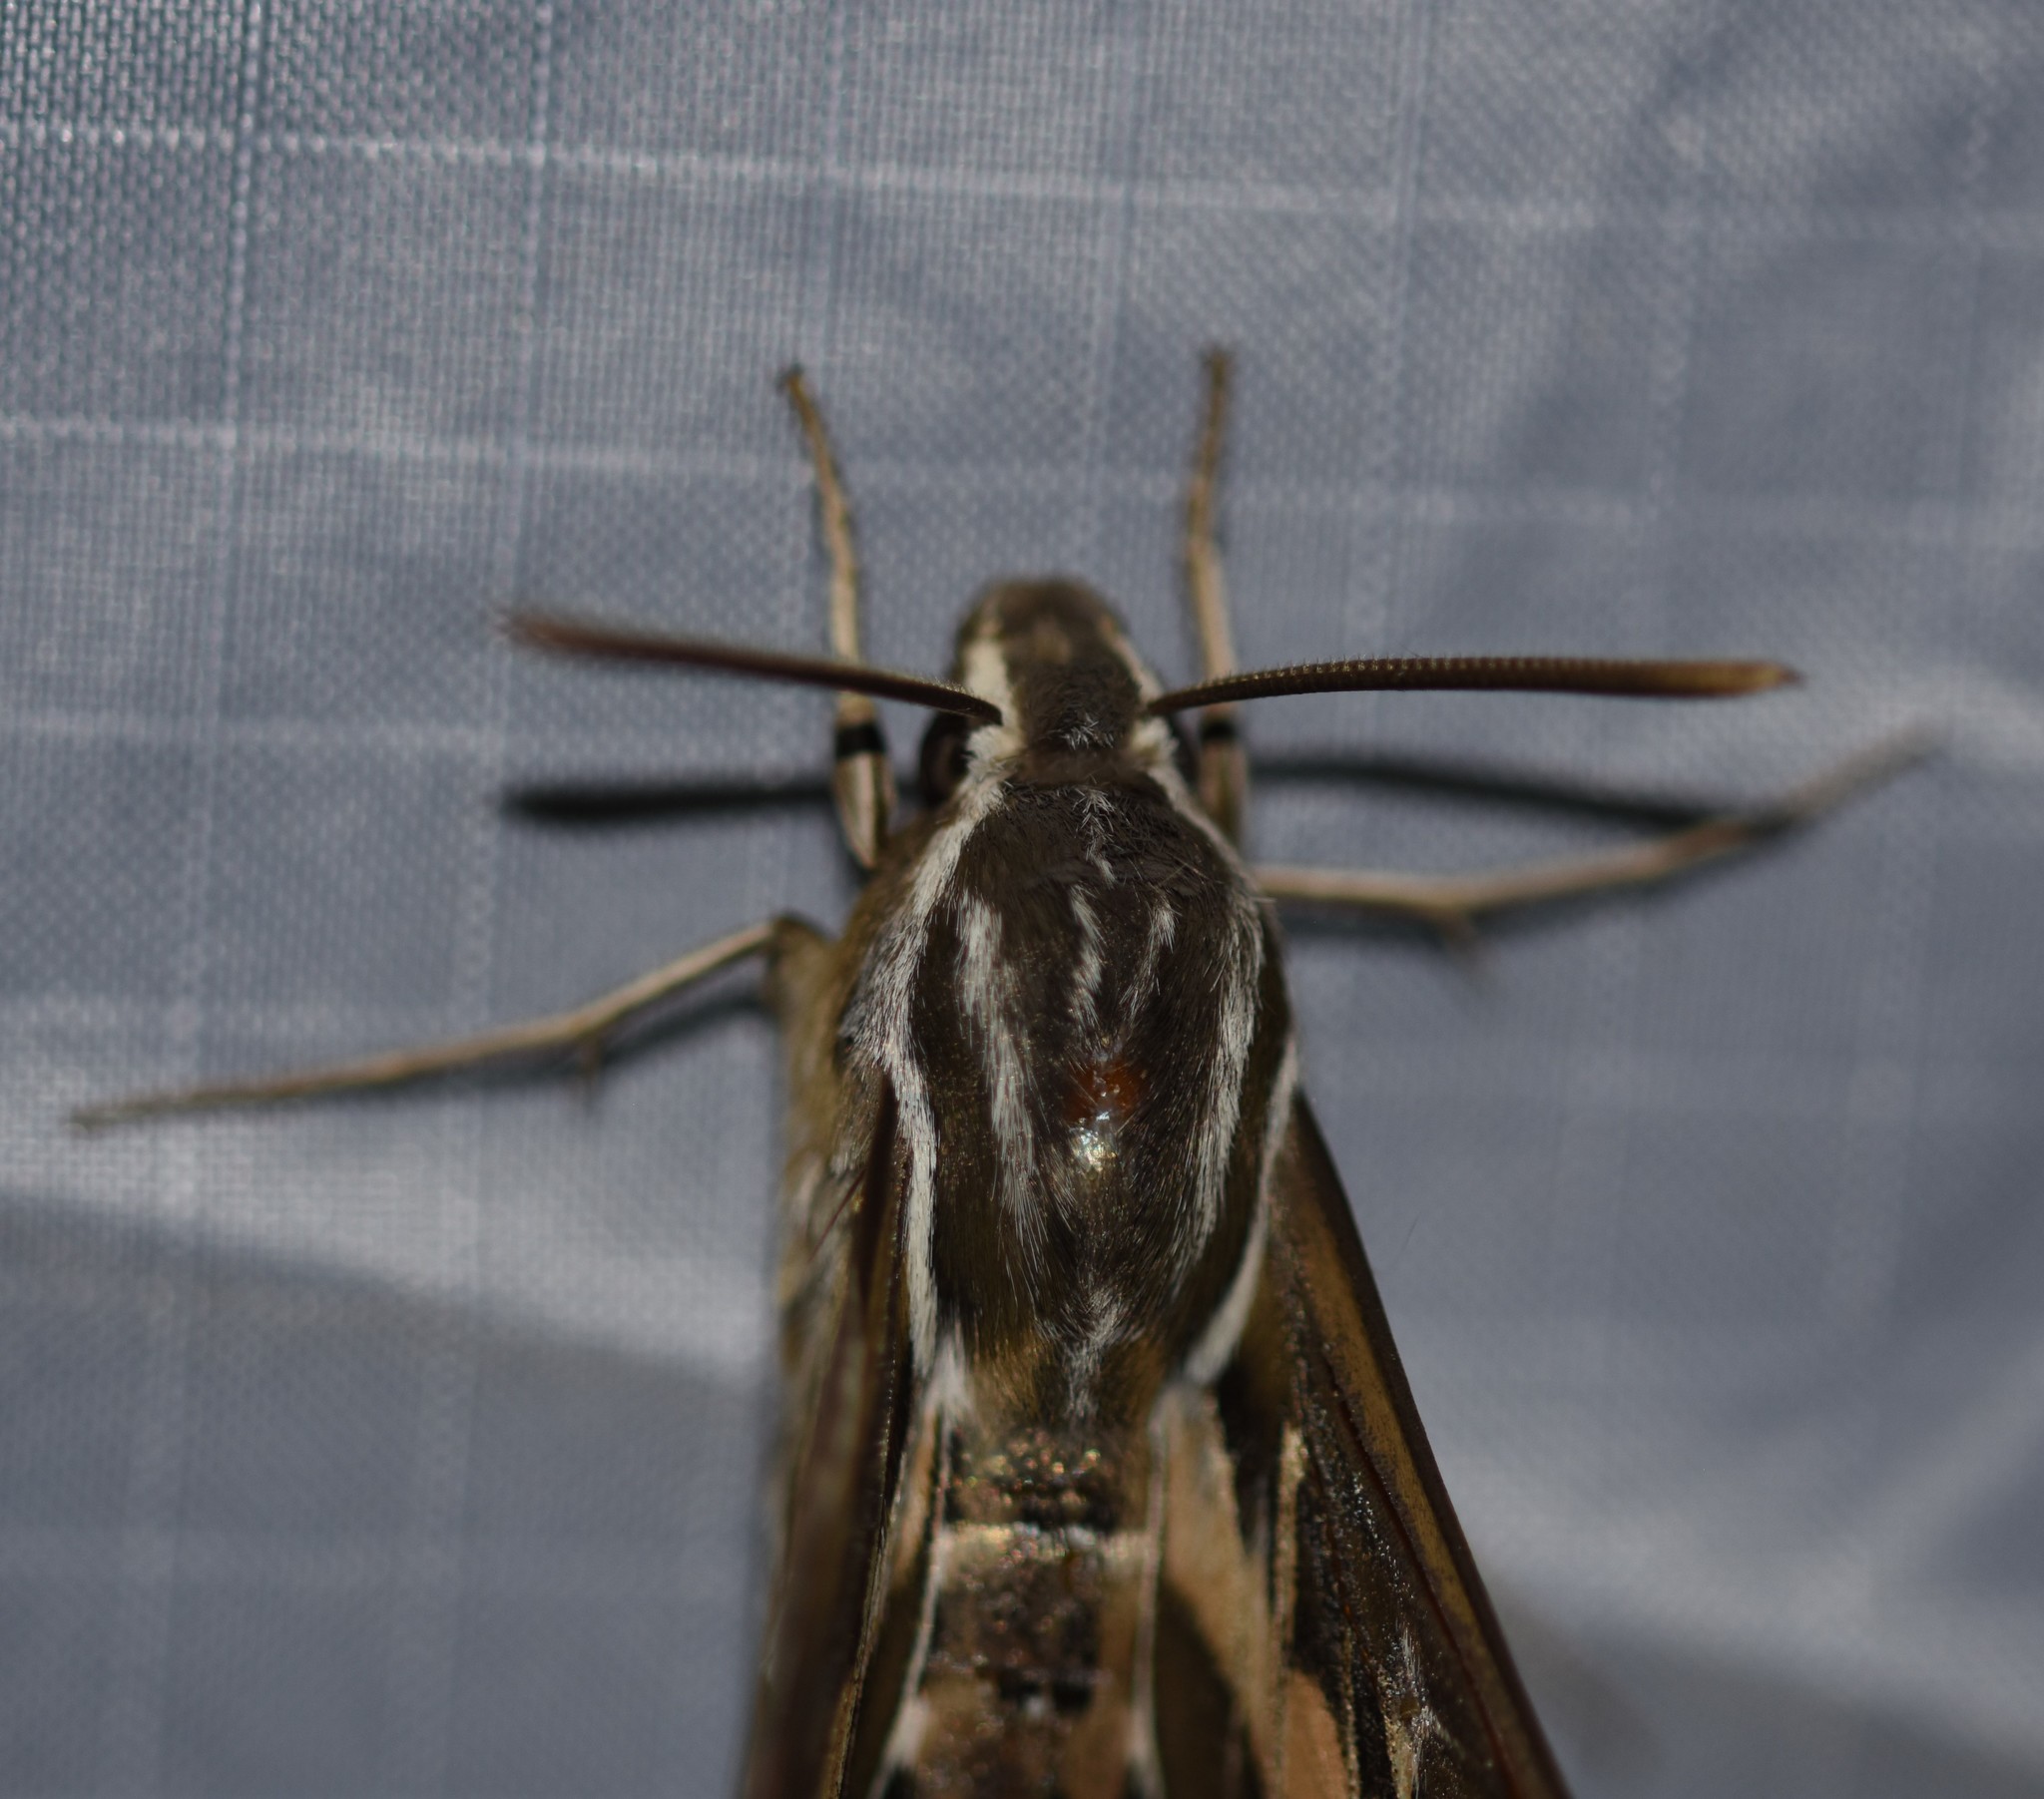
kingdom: Animalia
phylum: Arthropoda
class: Insecta
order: Lepidoptera
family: Sphingidae
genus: Hyles
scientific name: Hyles lineata
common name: White-lined sphinx
